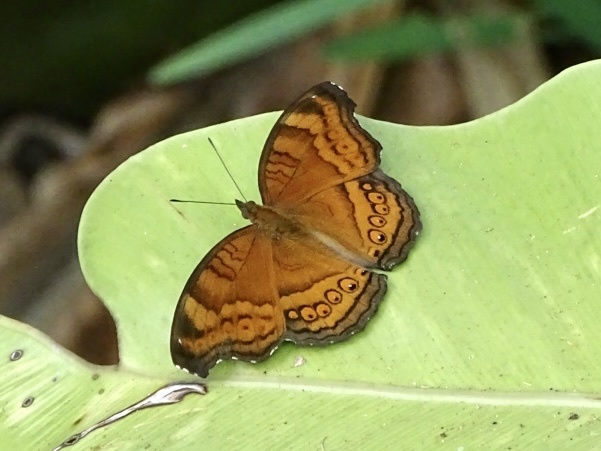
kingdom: Animalia
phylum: Arthropoda
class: Insecta
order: Lepidoptera
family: Nymphalidae
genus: Junonia
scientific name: Junonia hedonia
